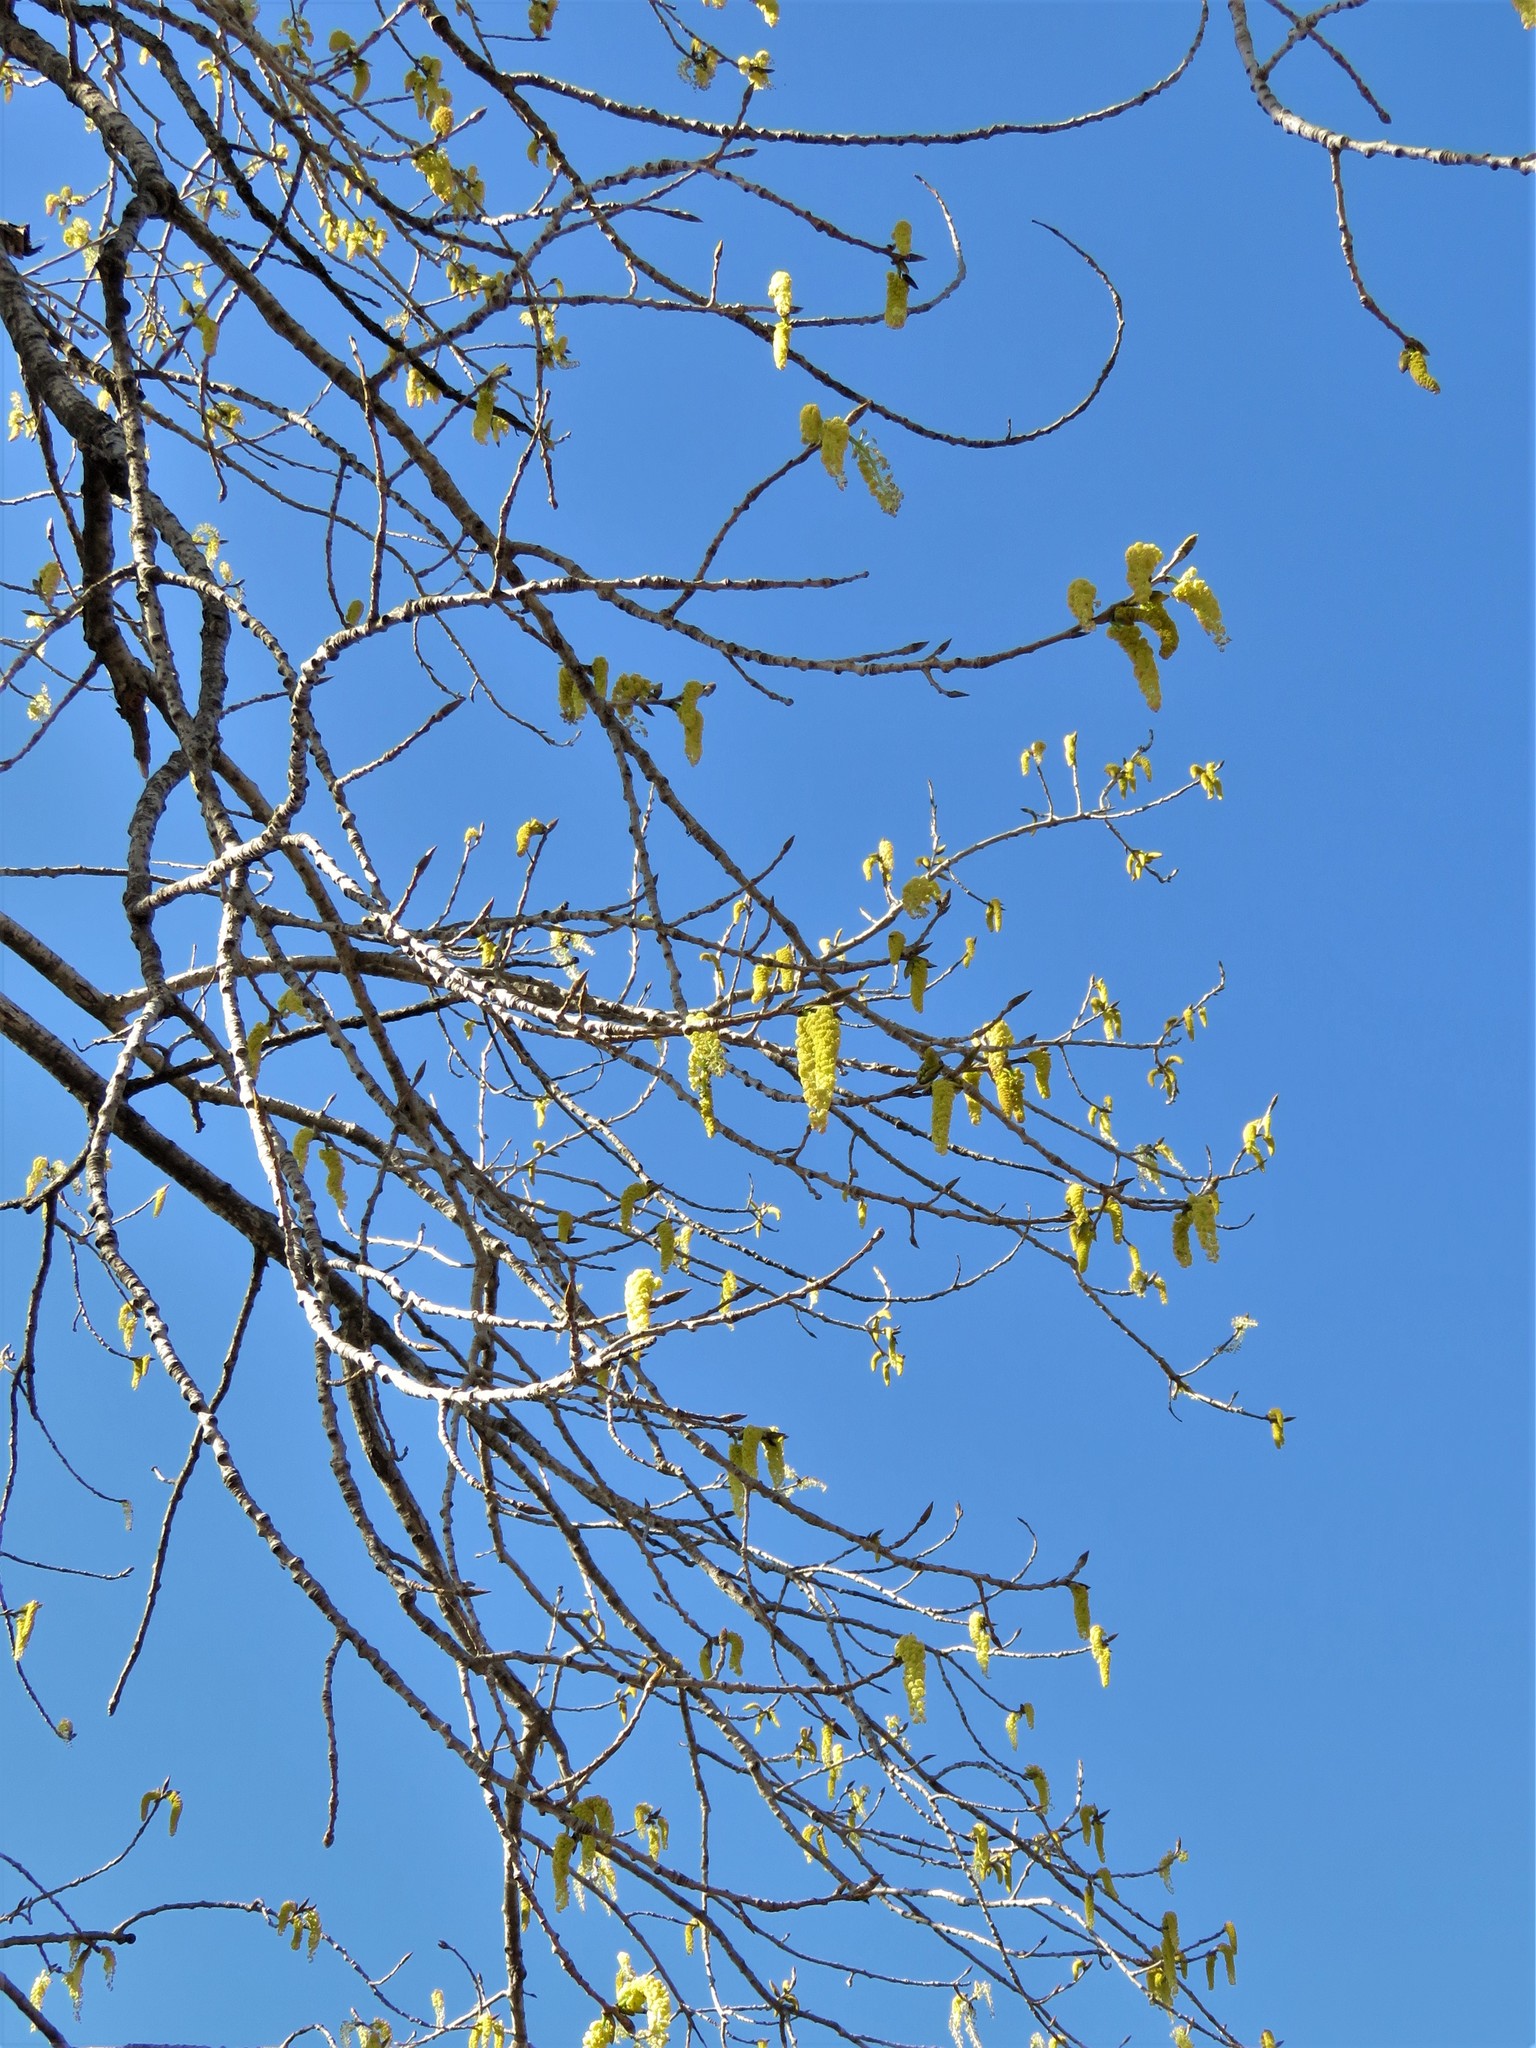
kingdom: Plantae
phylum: Tracheophyta
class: Magnoliopsida
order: Malpighiales
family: Salicaceae
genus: Populus
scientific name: Populus deltoides
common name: Eastern cottonwood
